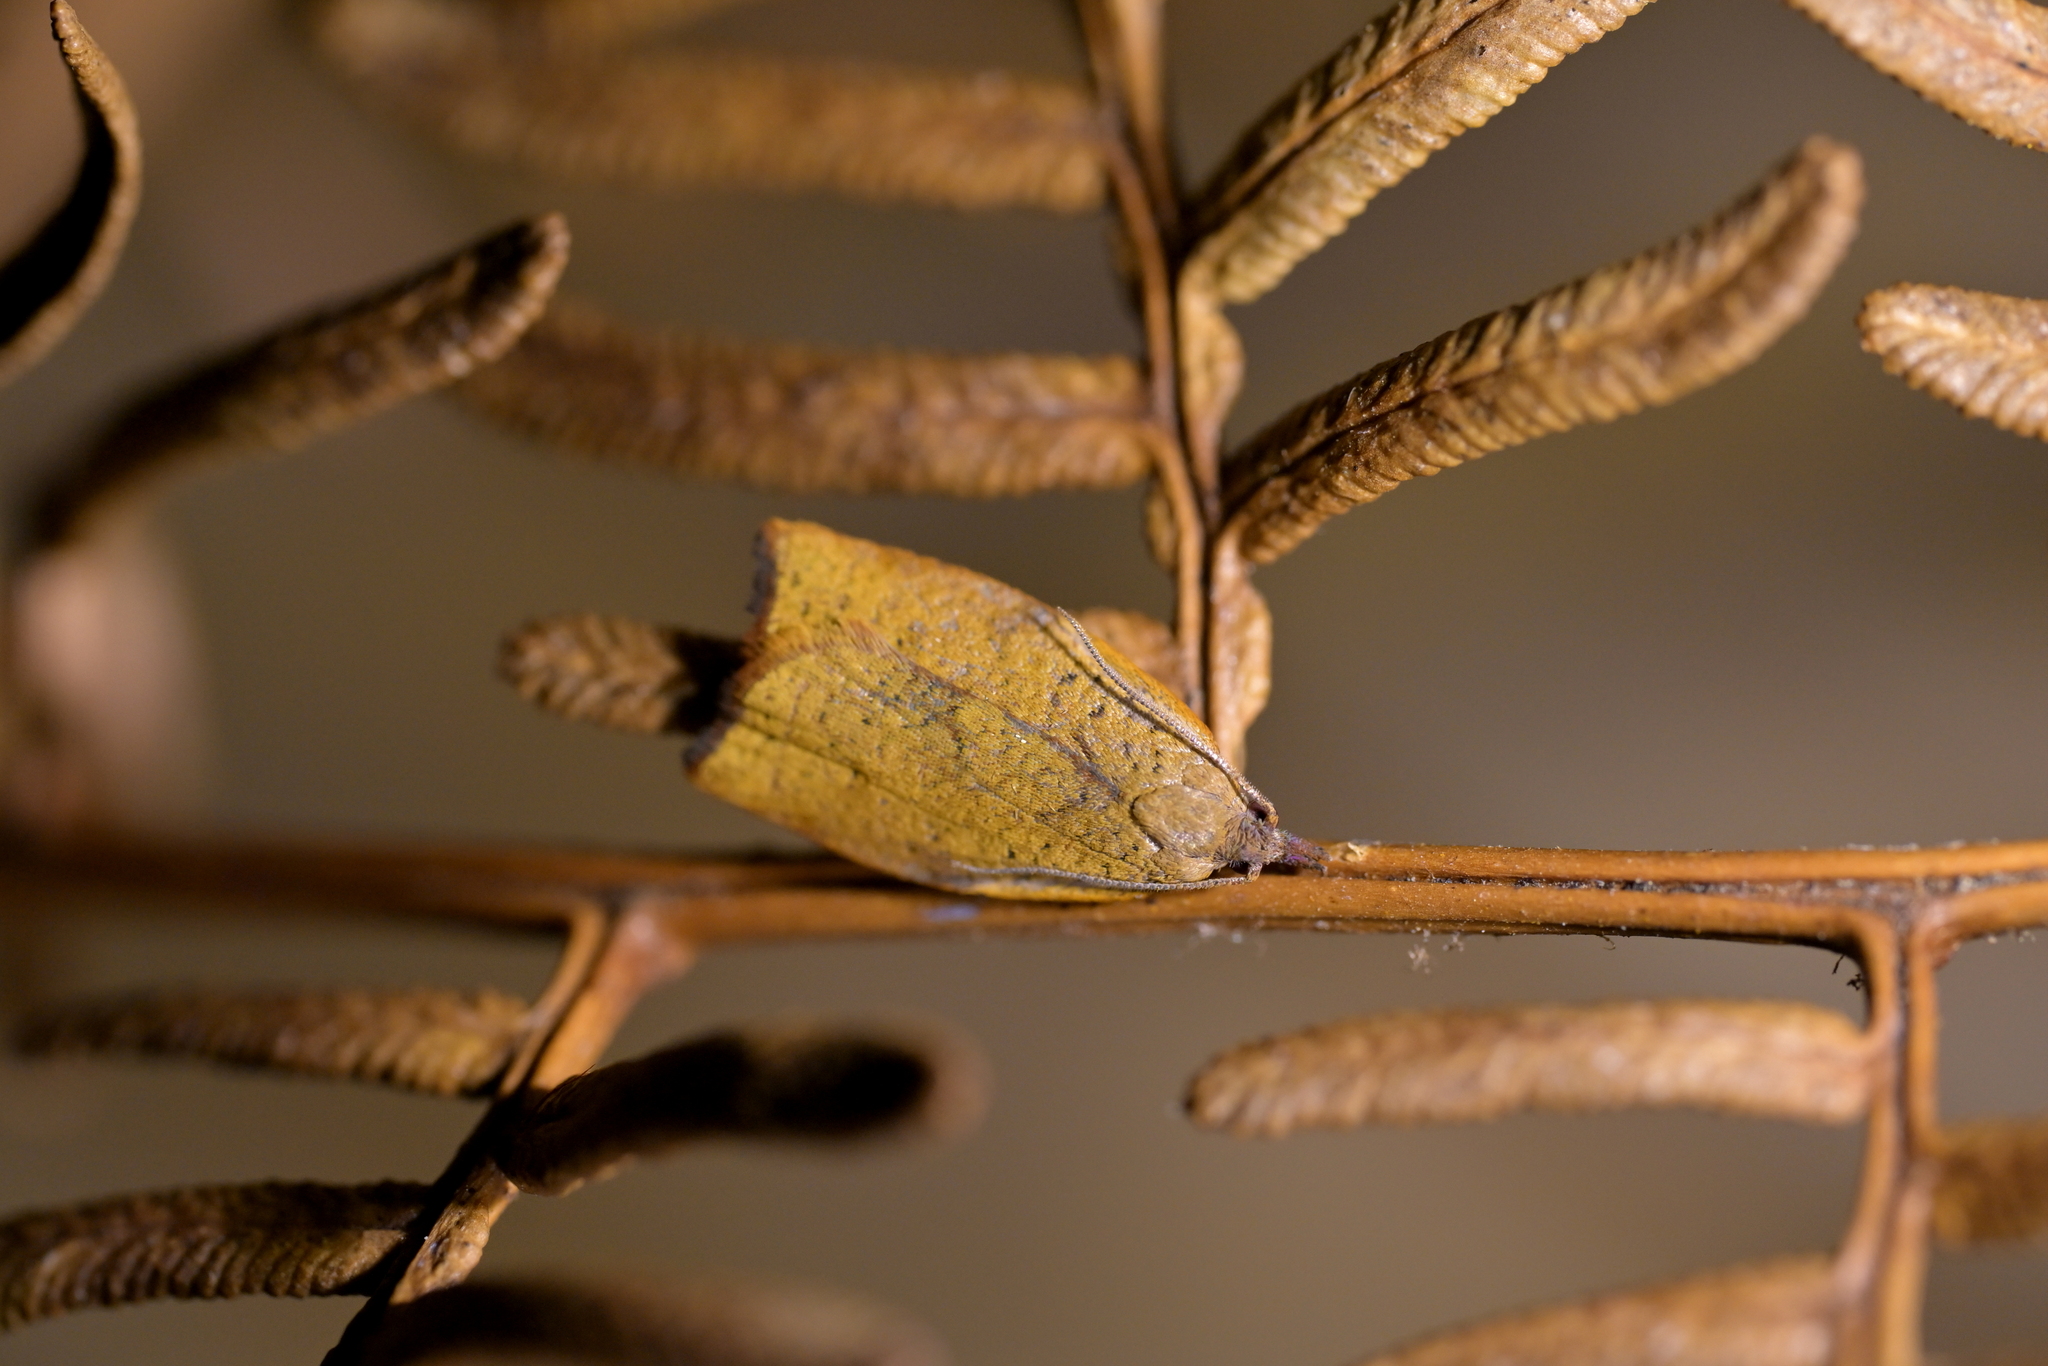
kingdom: Animalia
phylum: Arthropoda
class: Insecta
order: Lepidoptera
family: Tortricidae
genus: Apoctena
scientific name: Apoctena flavescens
